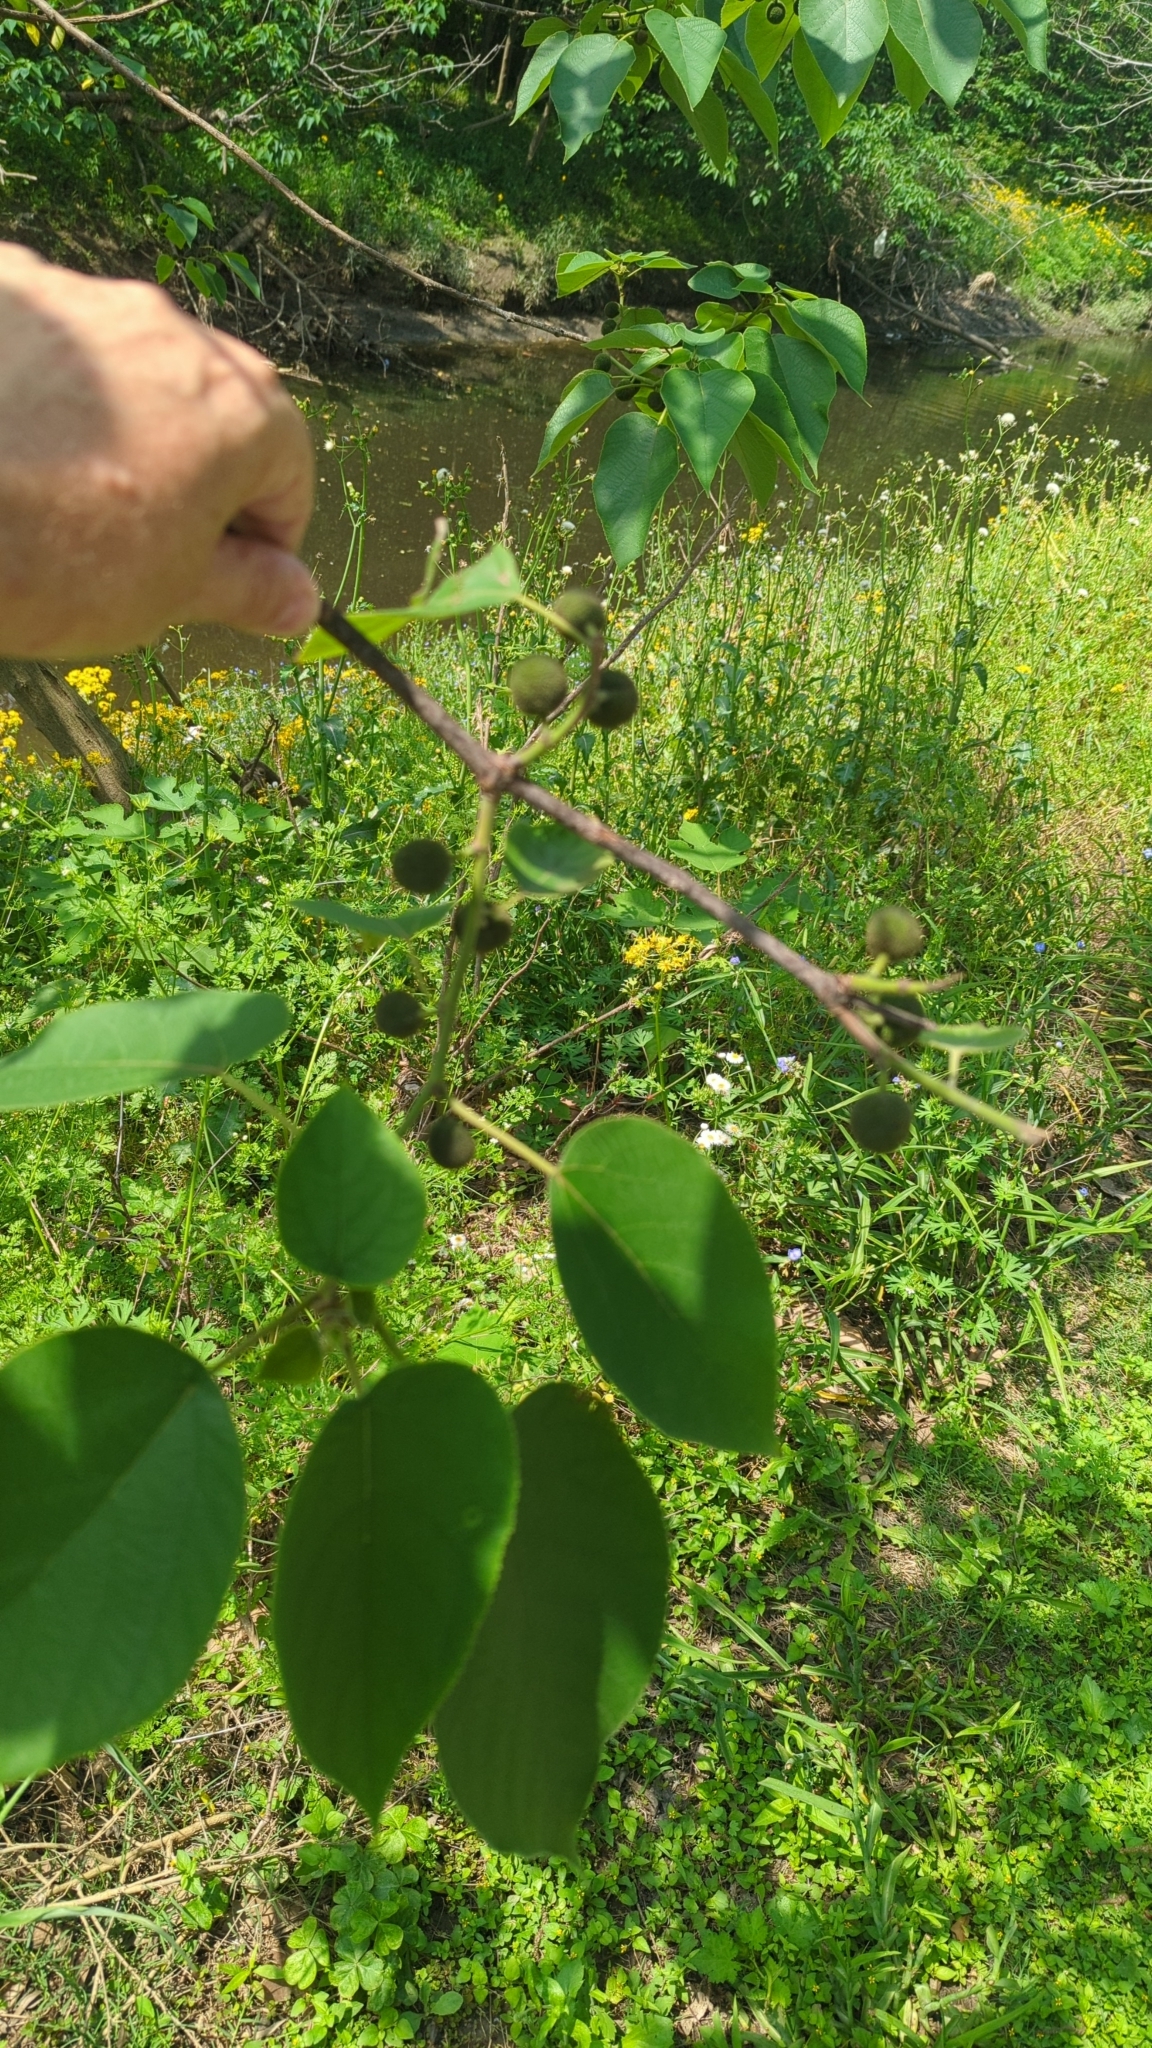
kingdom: Plantae
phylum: Tracheophyta
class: Magnoliopsida
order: Rosales
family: Moraceae
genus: Broussonetia
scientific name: Broussonetia papyrifera
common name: Paper mulberry
